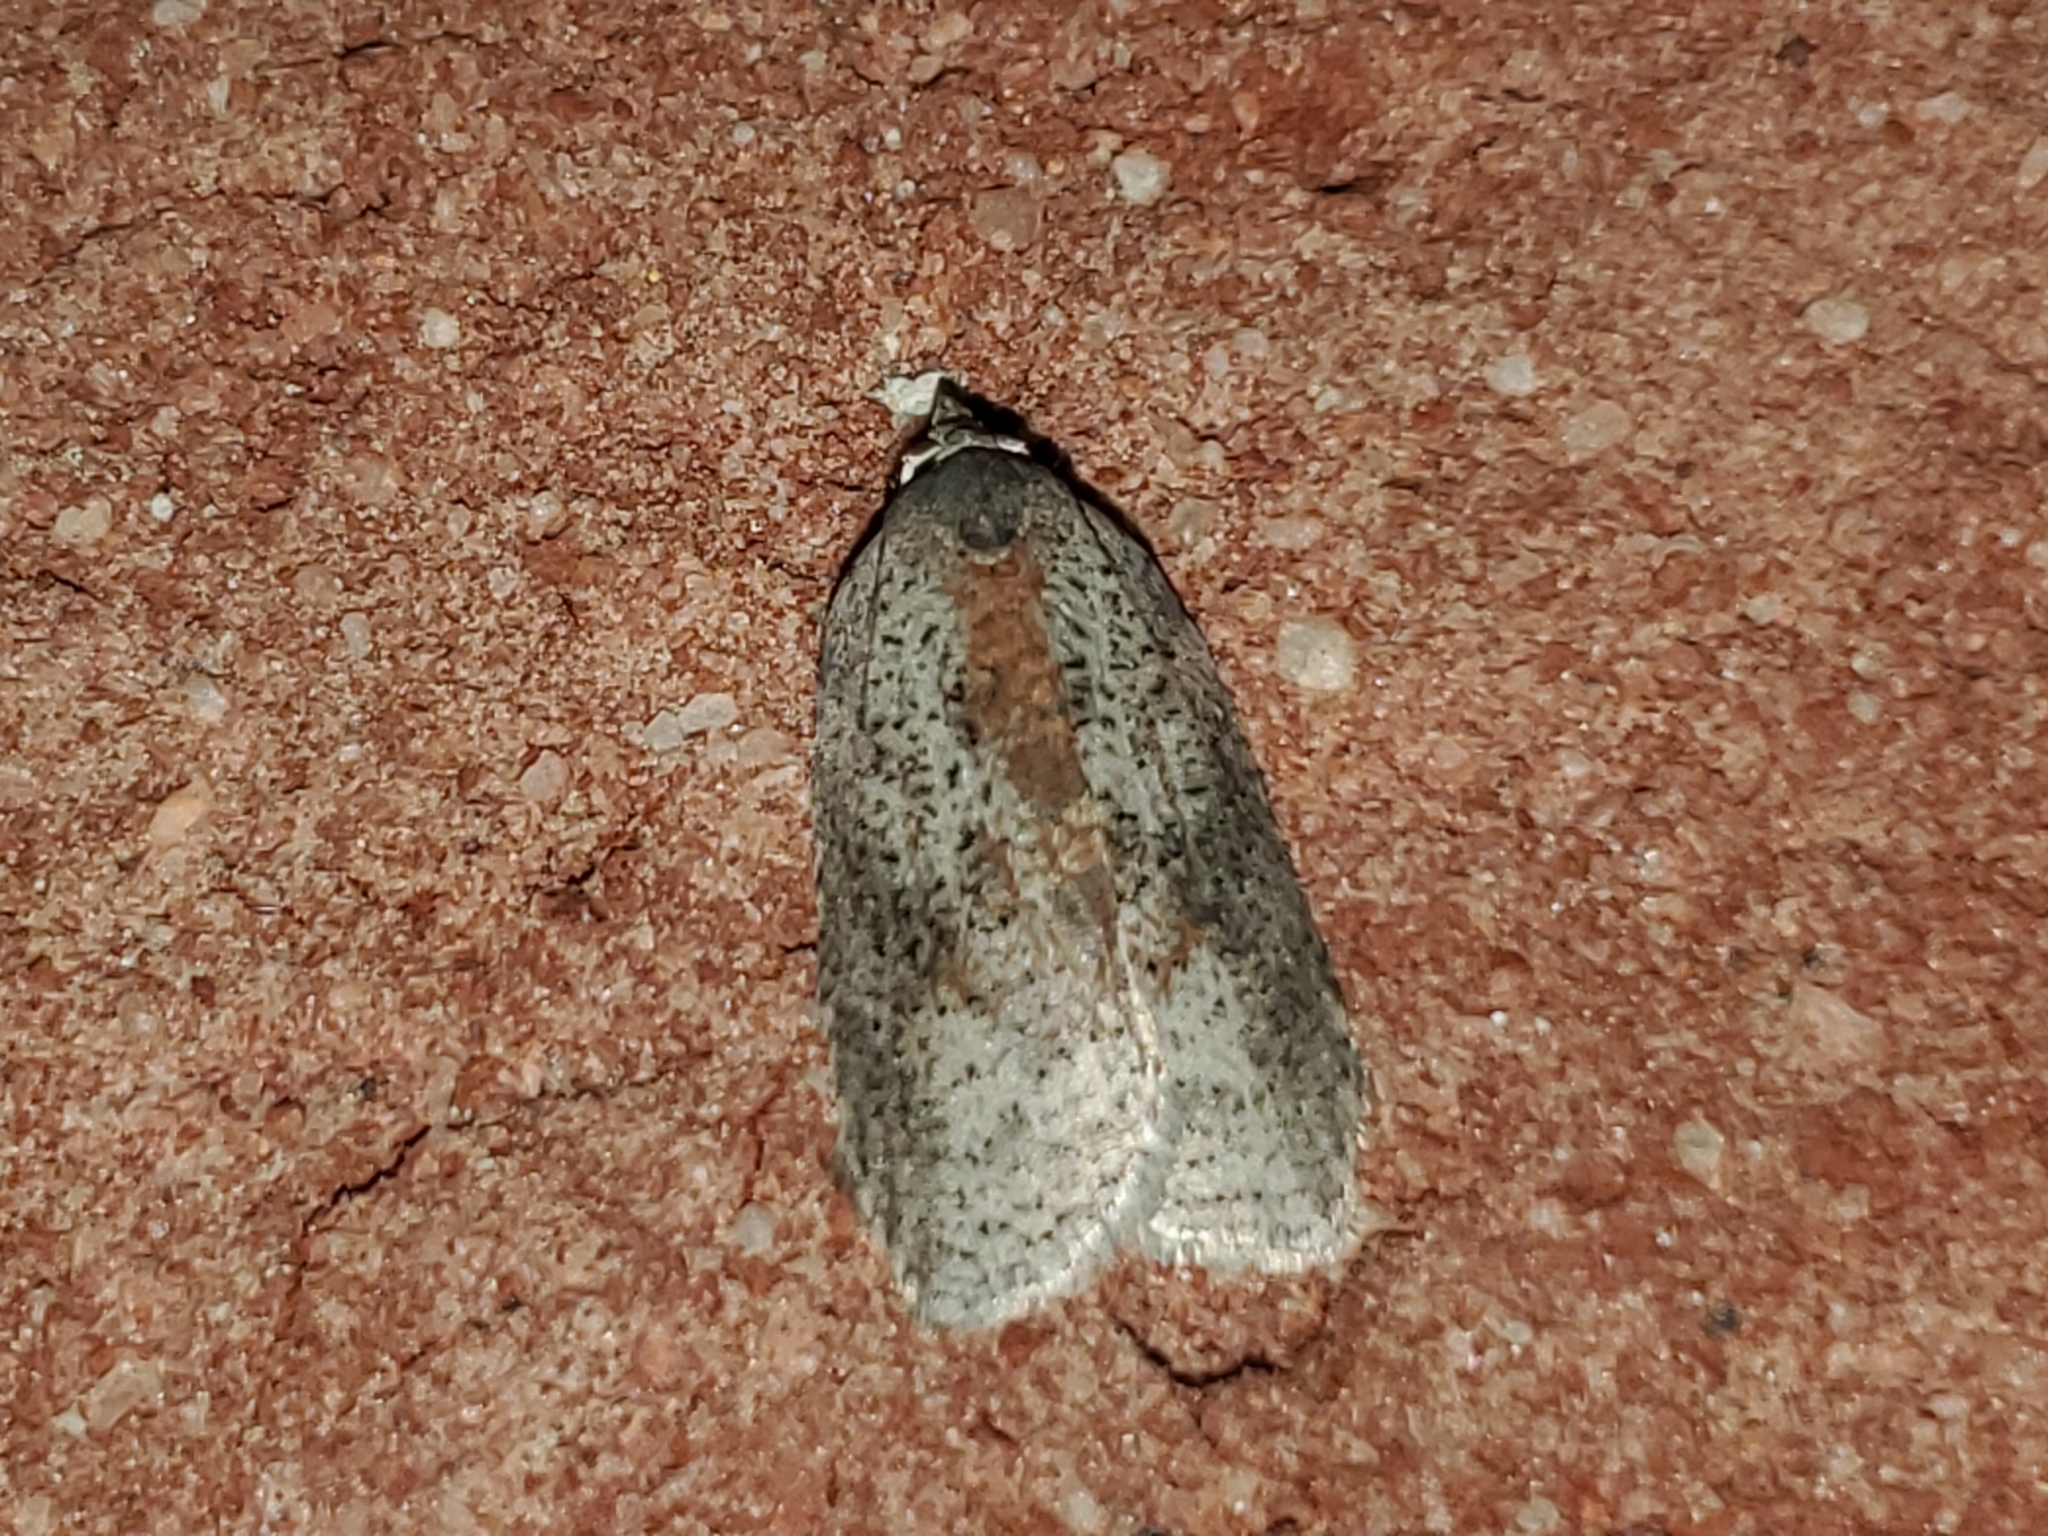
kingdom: Animalia
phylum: Arthropoda
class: Insecta
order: Lepidoptera
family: Tortricidae
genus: Amorbia
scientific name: Amorbia humerosana
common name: White-lined leafroller moth
